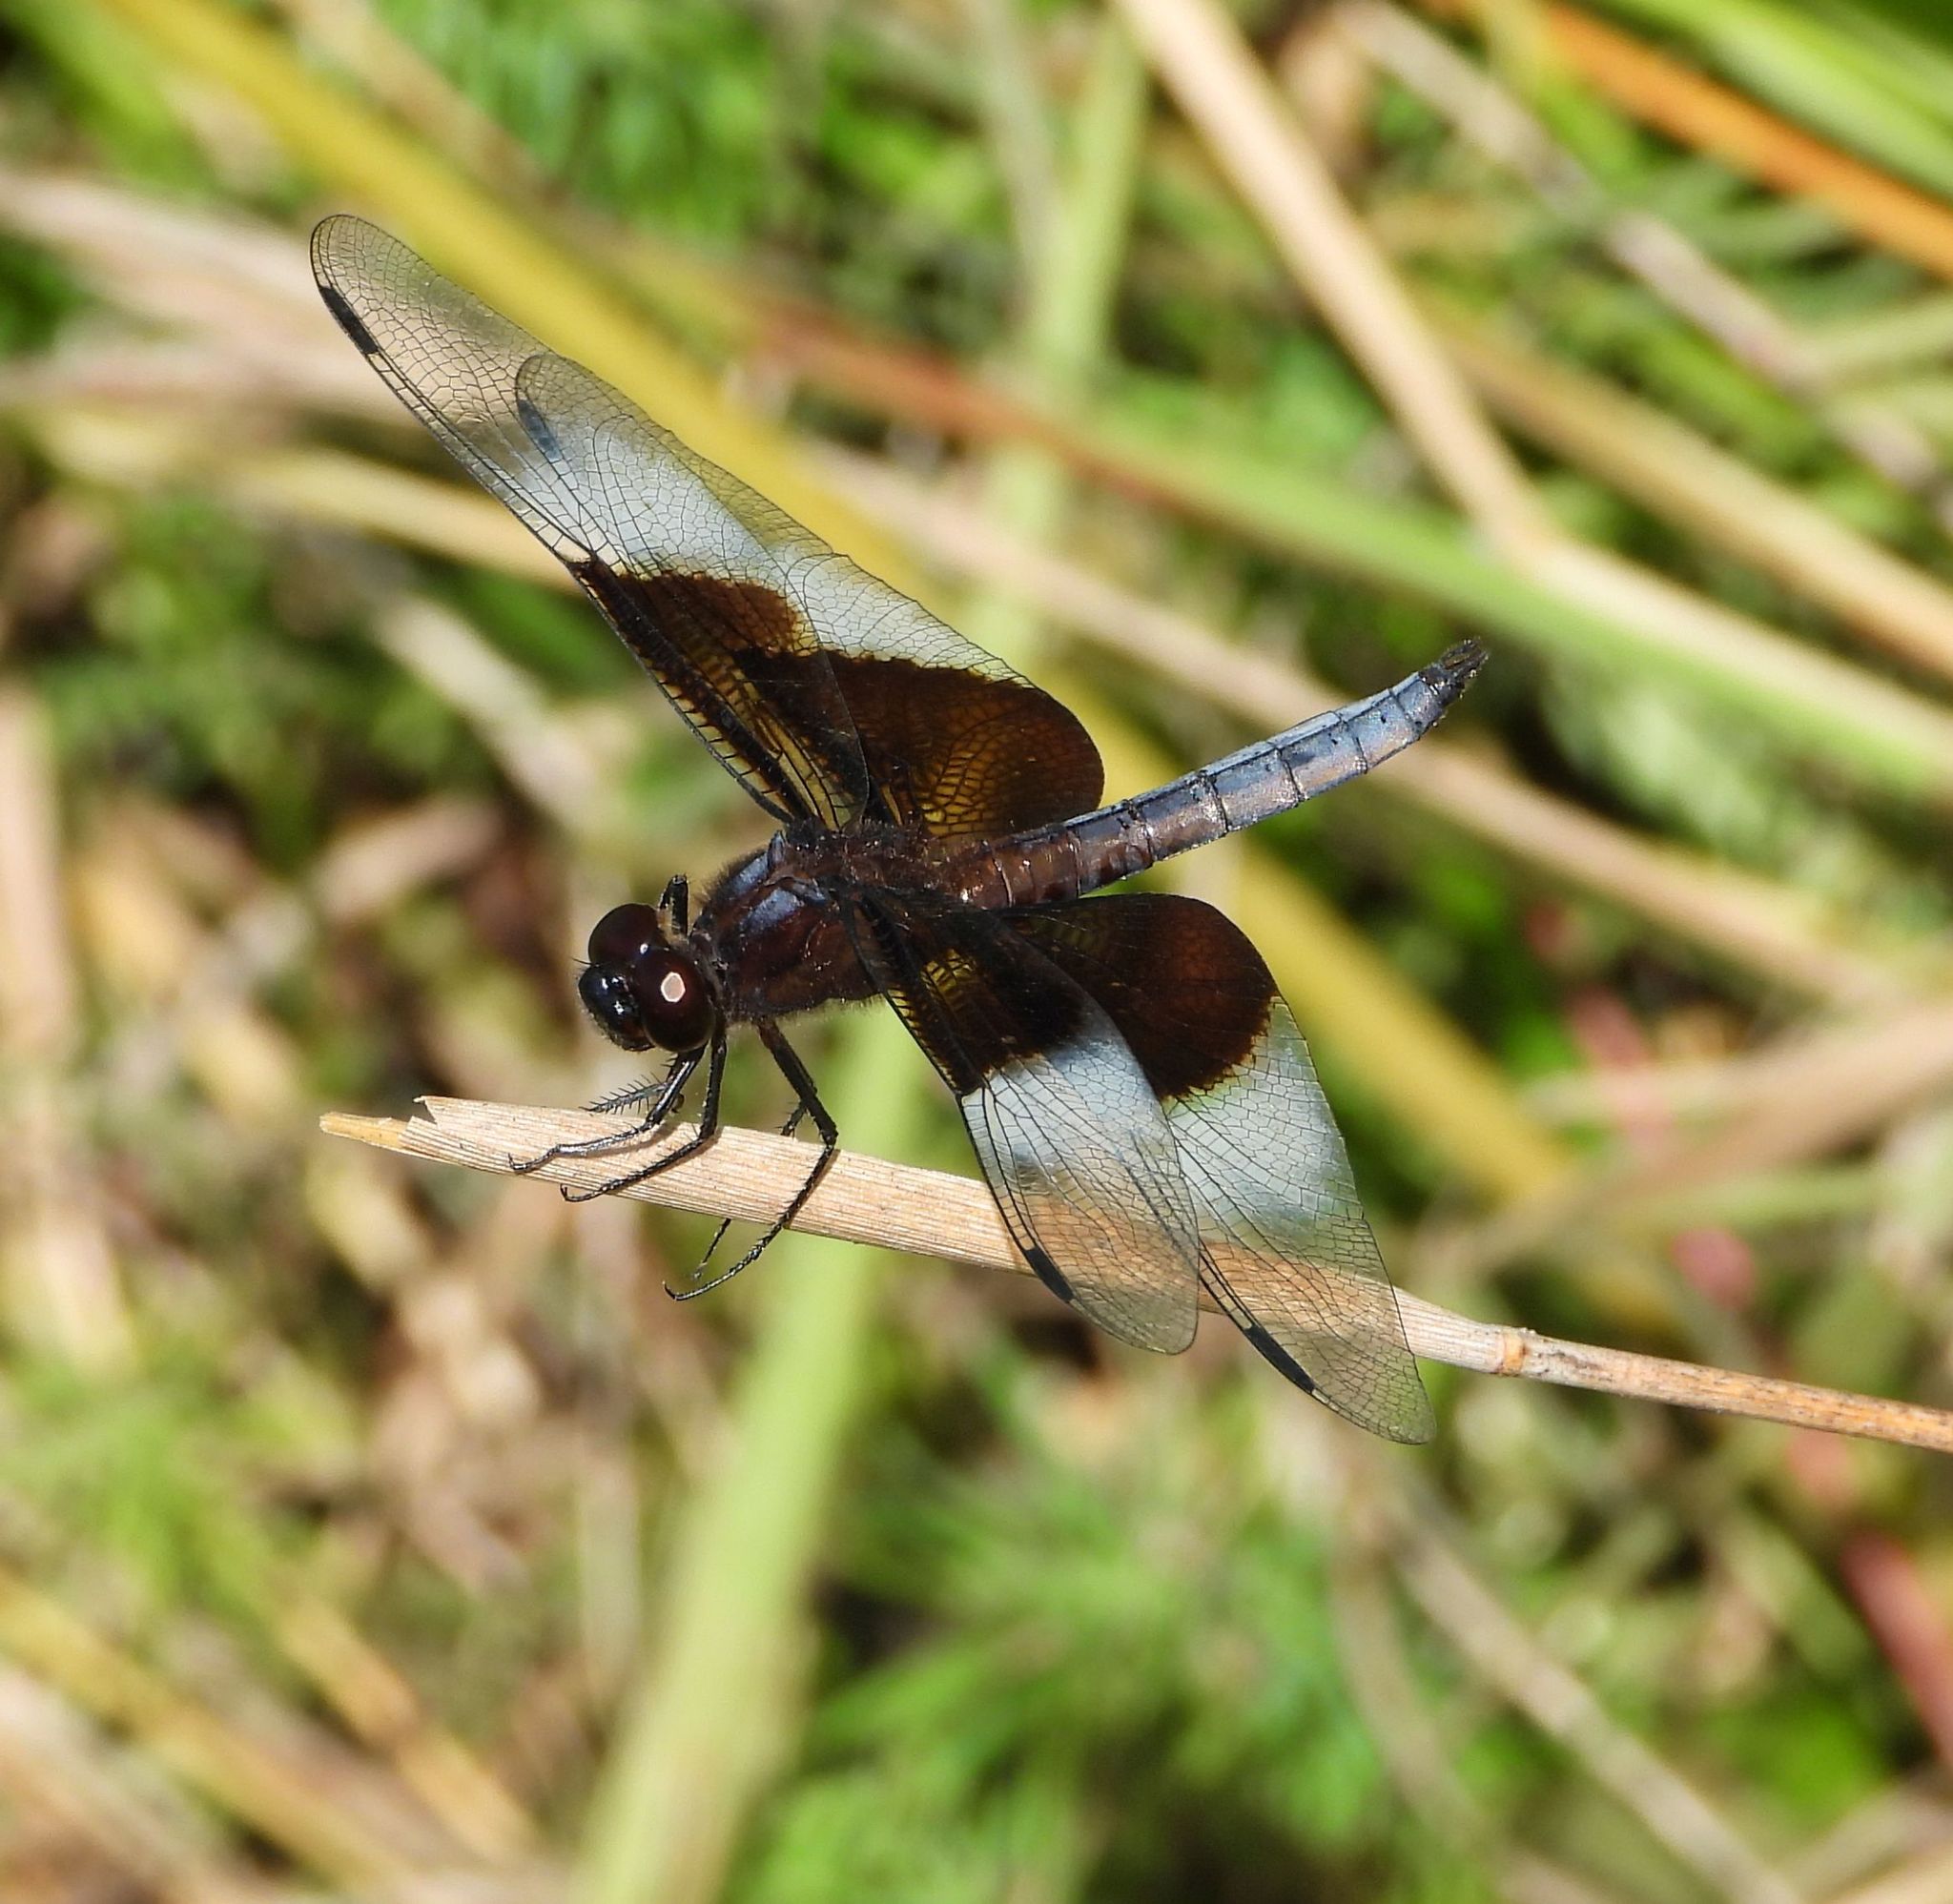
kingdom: Animalia
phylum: Arthropoda
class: Insecta
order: Odonata
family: Libellulidae
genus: Libellula
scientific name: Libellula luctuosa
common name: Widow skimmer
